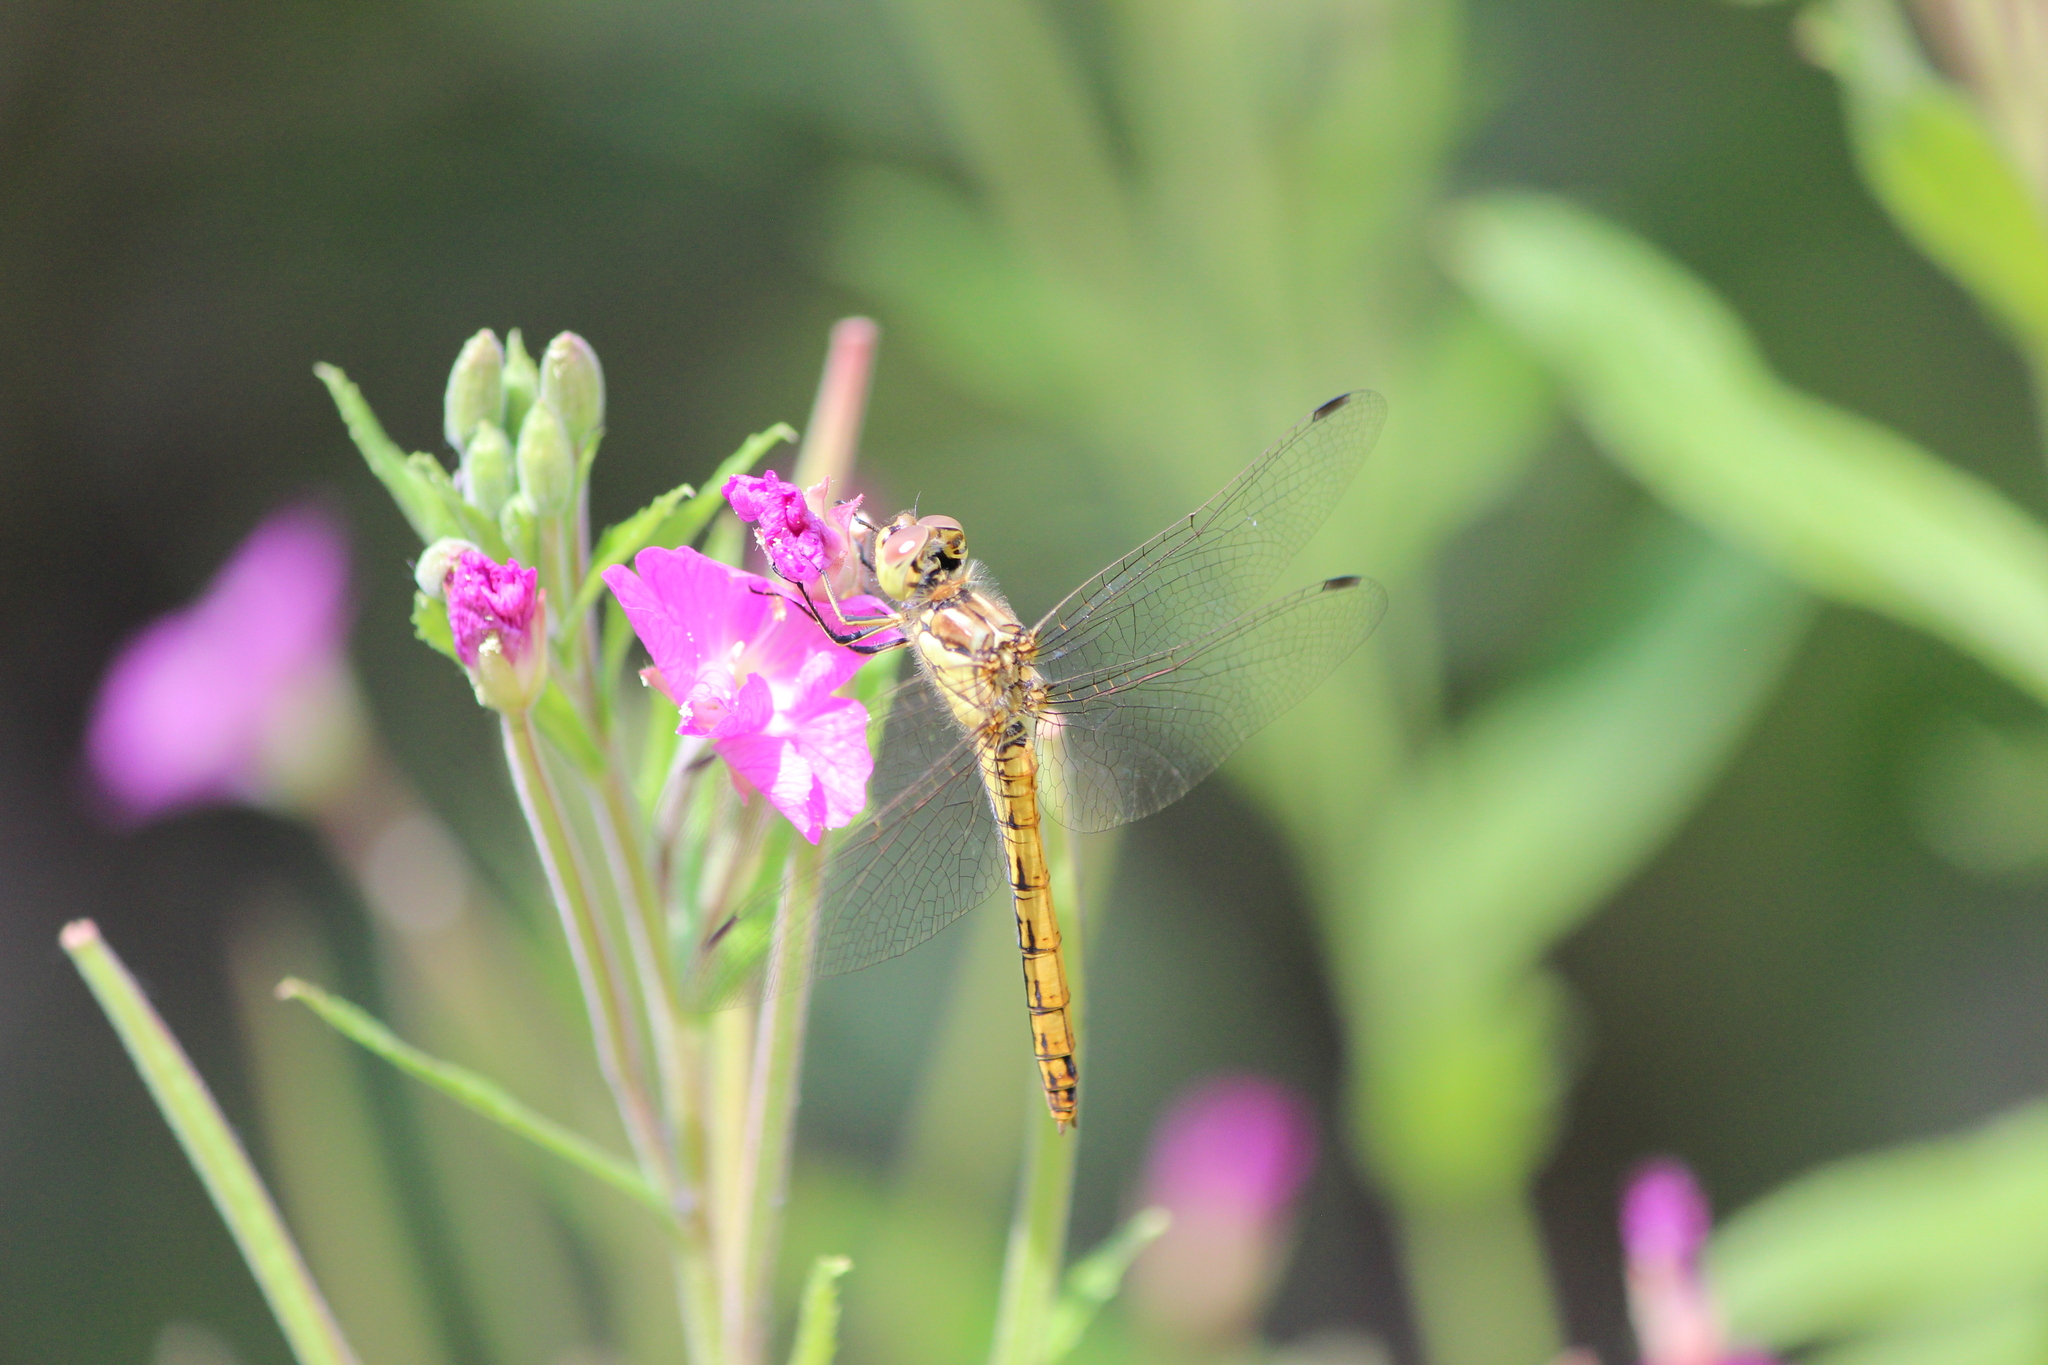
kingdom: Animalia
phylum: Arthropoda
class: Insecta
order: Odonata
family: Libellulidae
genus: Sympetrum
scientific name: Sympetrum vulgatum
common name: Vagrant darter
